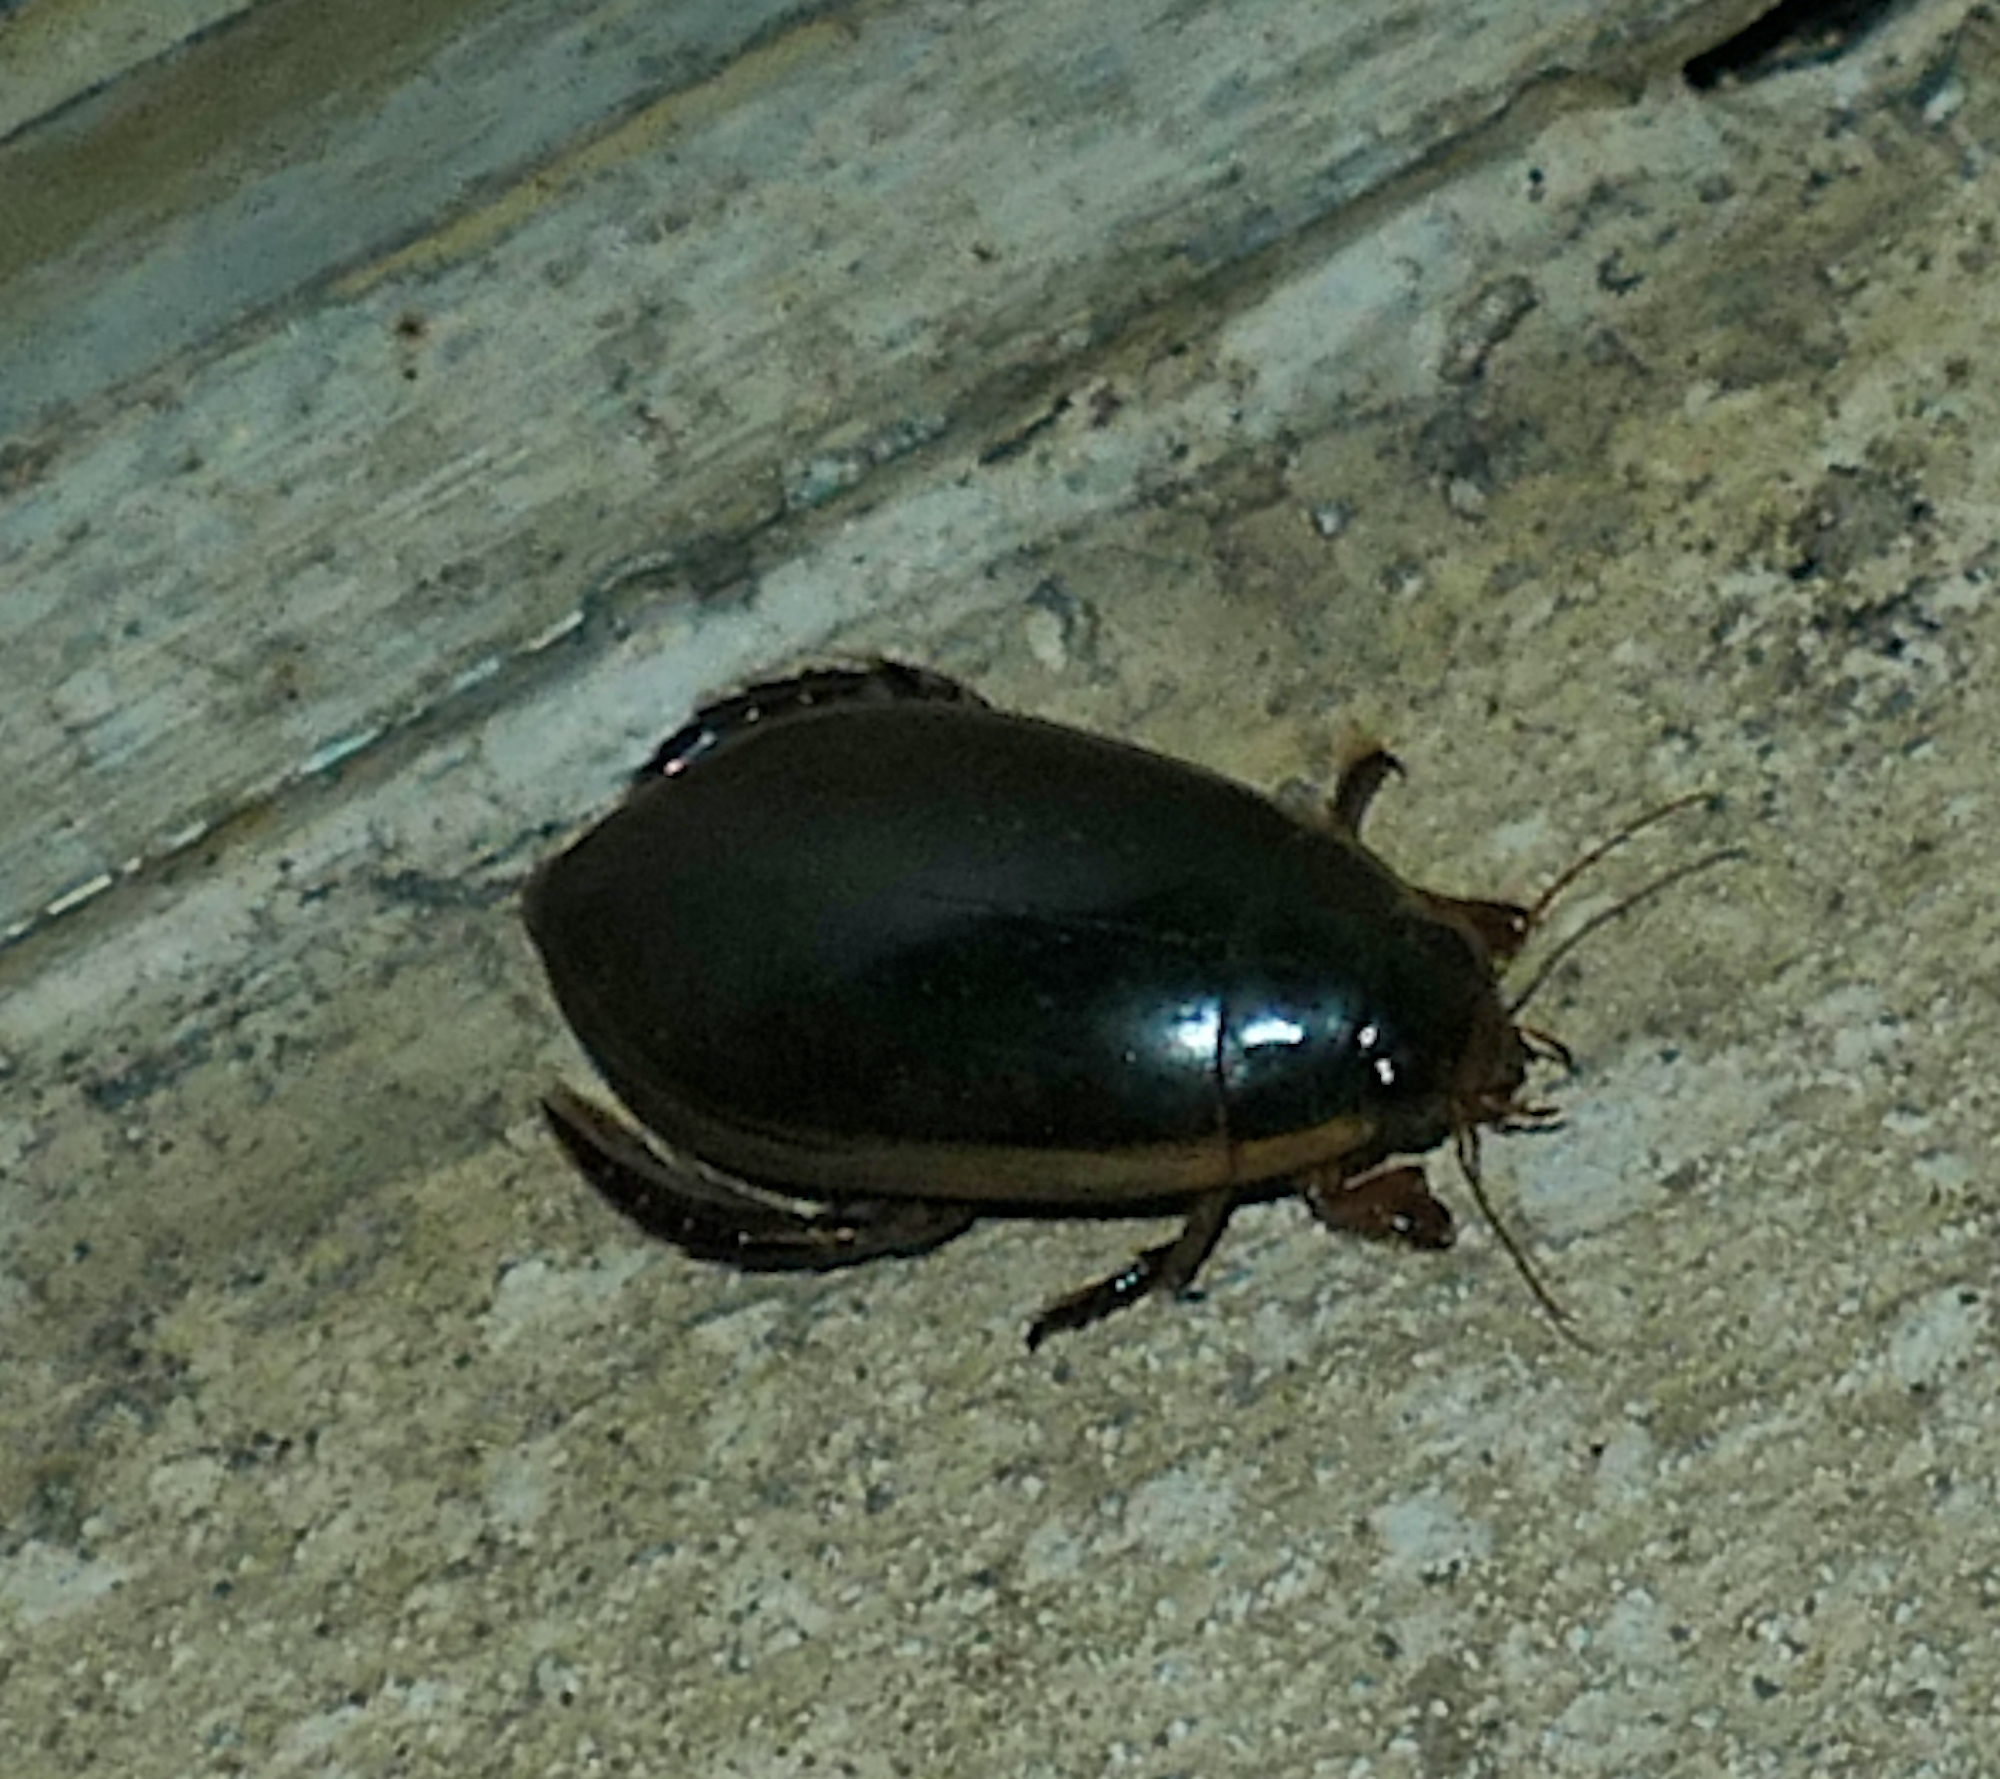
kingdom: Animalia
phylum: Arthropoda
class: Insecta
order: Coleoptera
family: Dytiscidae
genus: Cybister
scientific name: Cybister fimbriolatus
